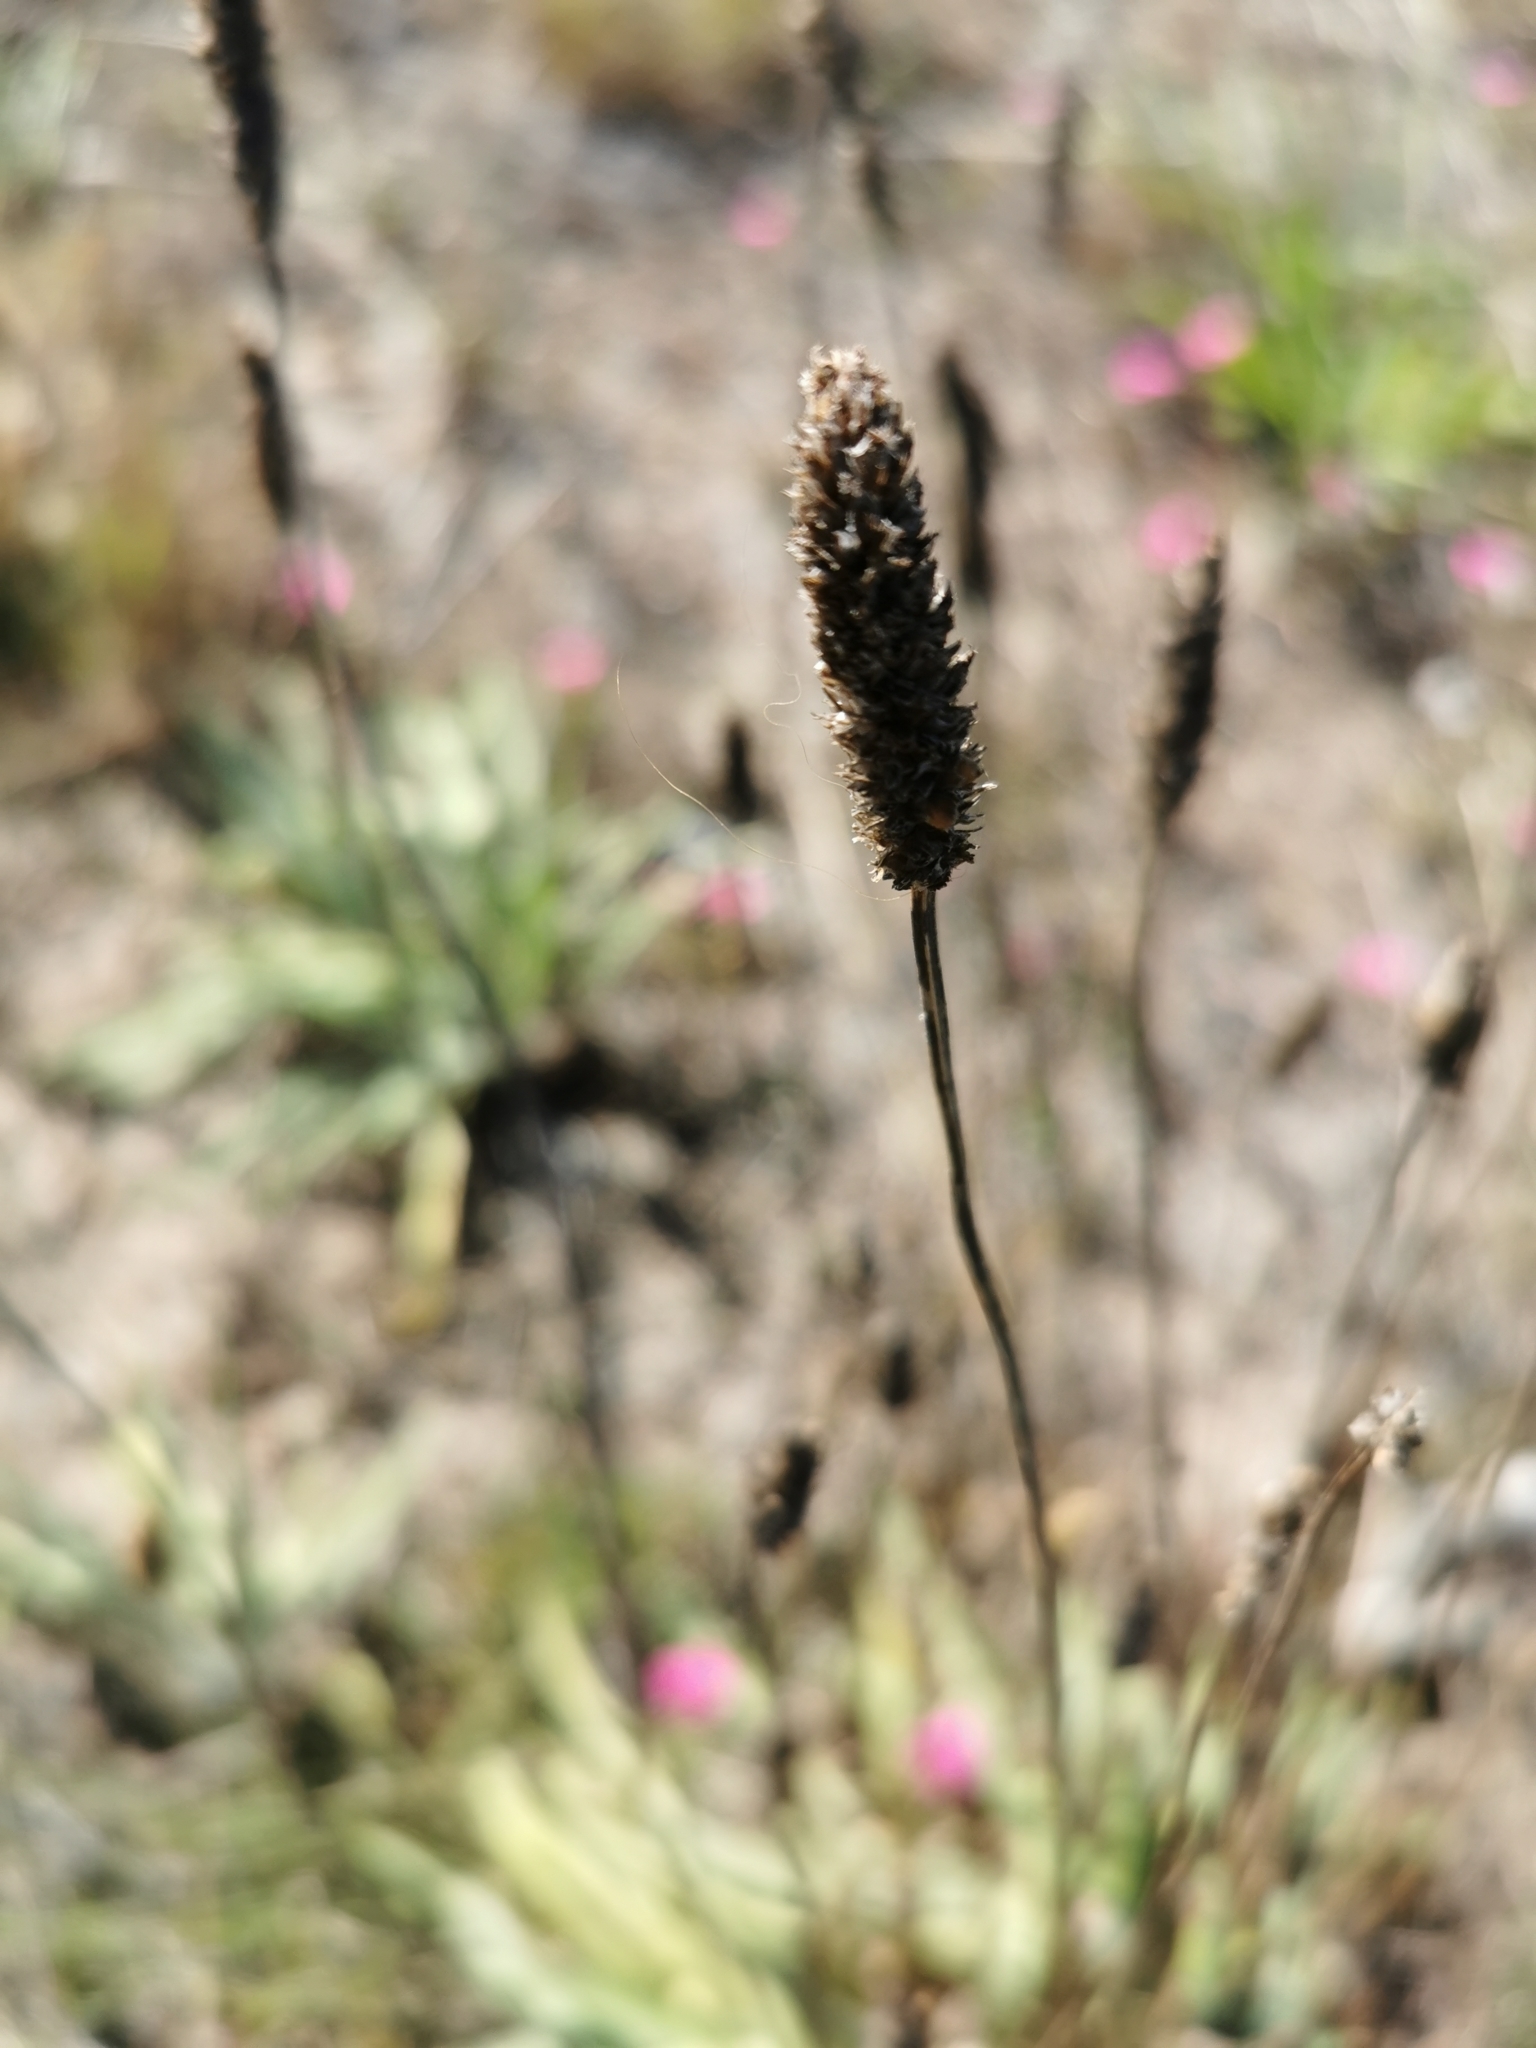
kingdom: Plantae
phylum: Tracheophyta
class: Magnoliopsida
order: Lamiales
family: Plantaginaceae
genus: Plantago
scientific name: Plantago lanceolata
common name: Ribwort plantain
